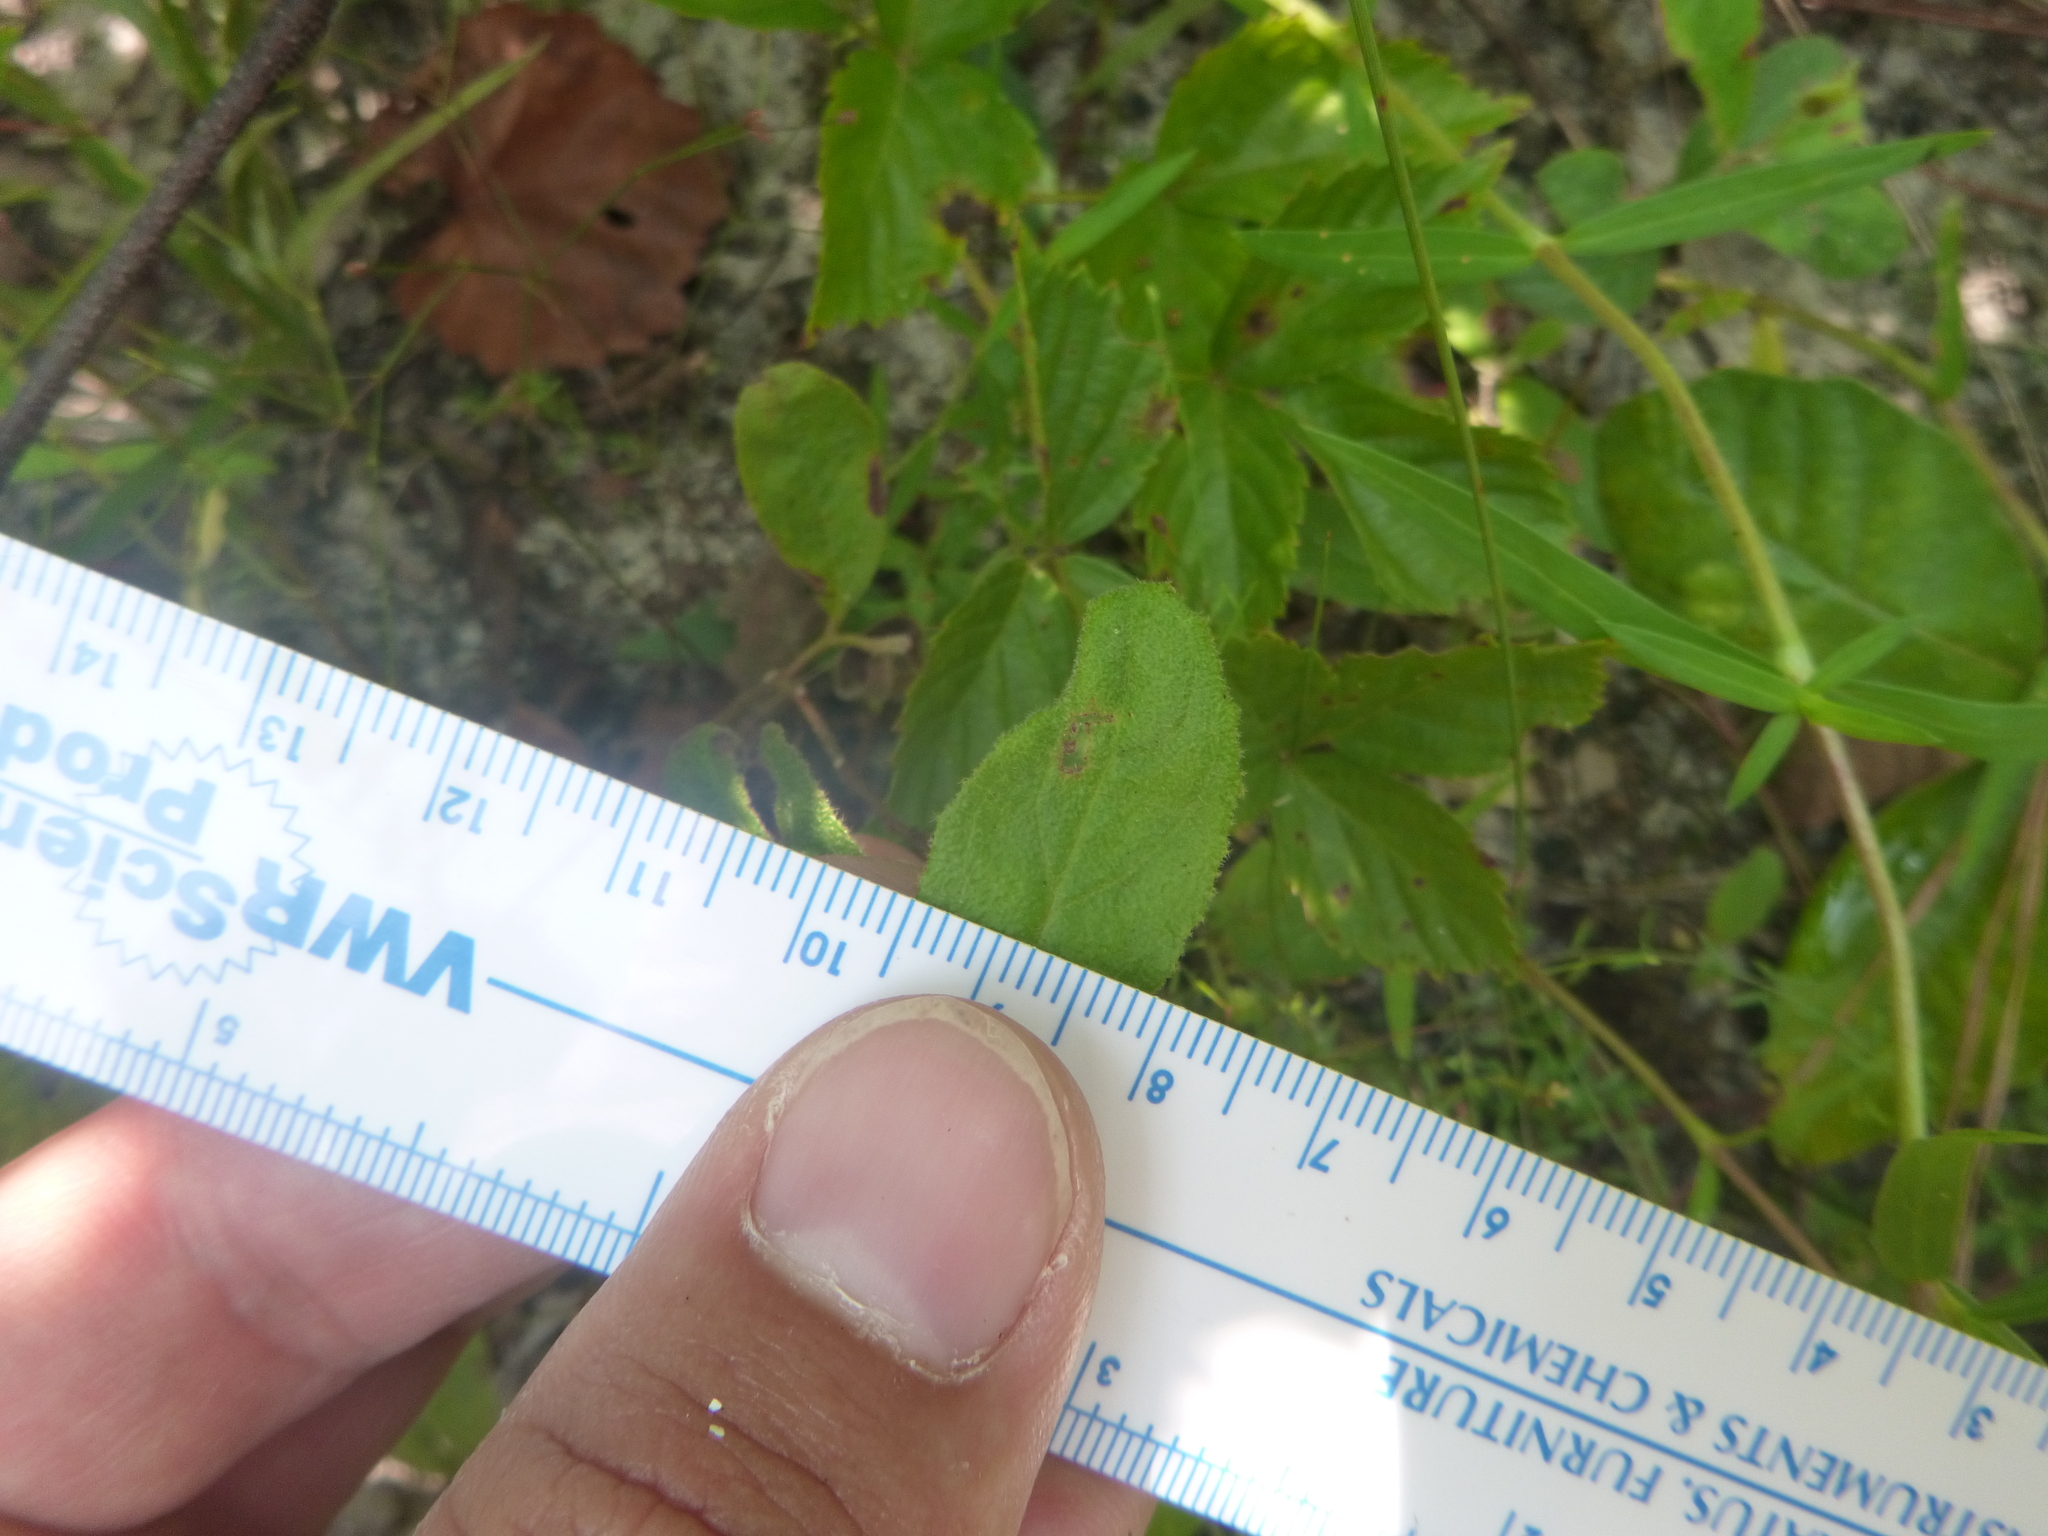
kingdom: Plantae
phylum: Tracheophyta
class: Magnoliopsida
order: Malvales
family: Cistaceae
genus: Crocanthemum
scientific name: Crocanthemum carolinianum
